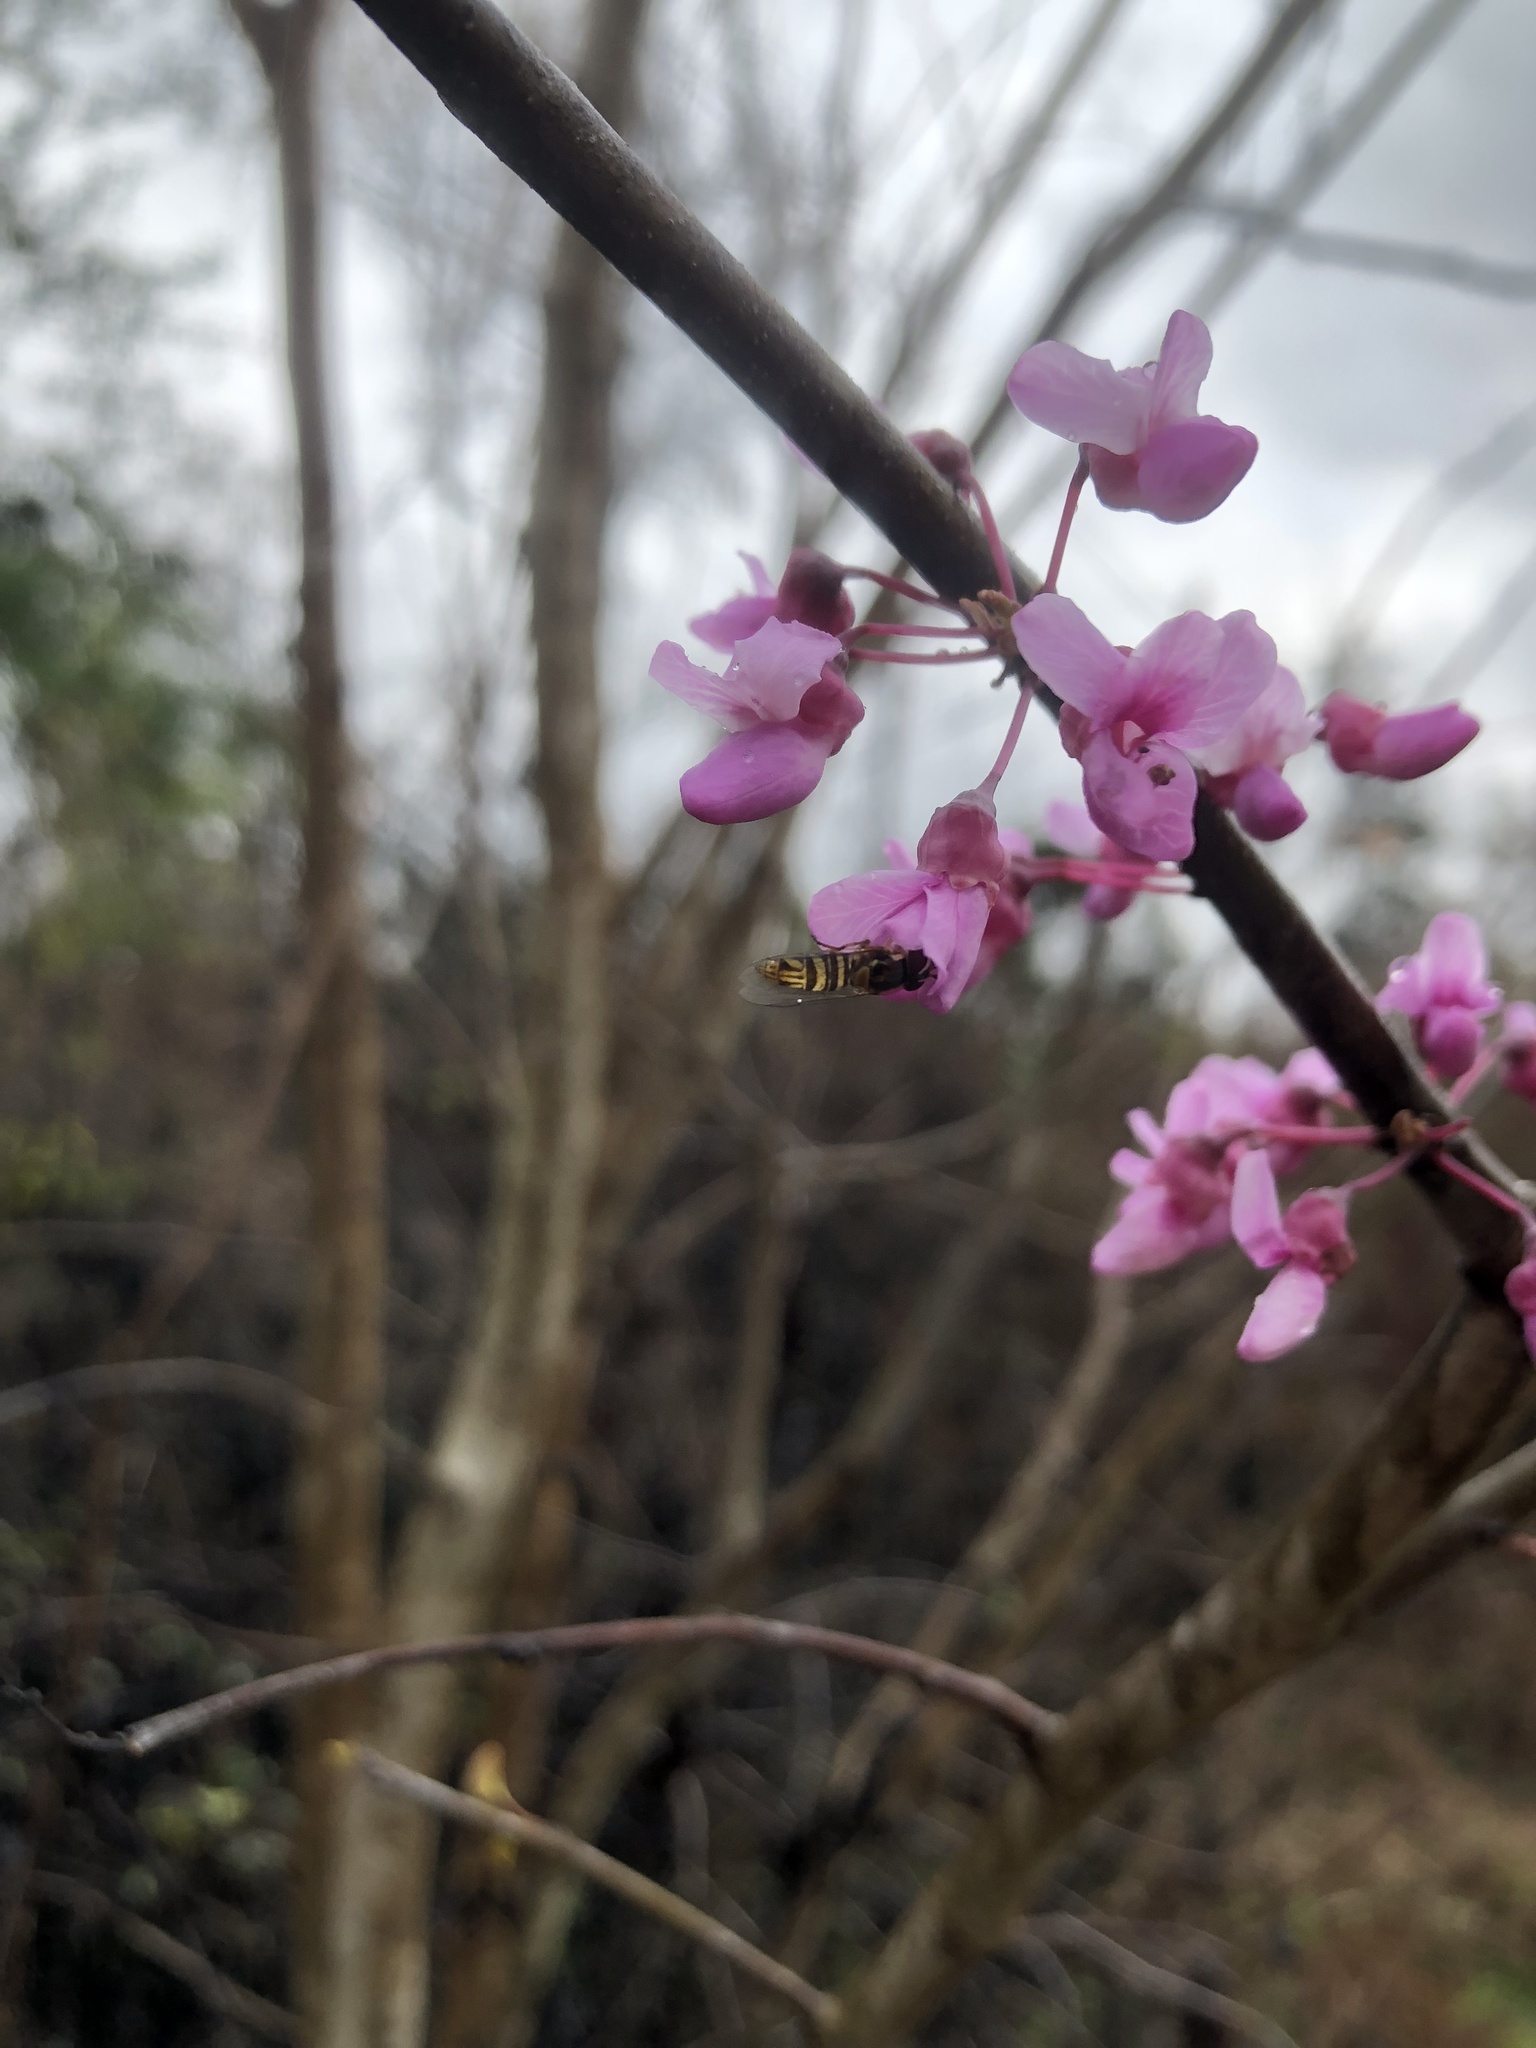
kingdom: Animalia
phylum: Arthropoda
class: Insecta
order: Diptera
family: Syrphidae
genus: Allograpta
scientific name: Allograpta obliqua
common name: Common oblique syrphid
